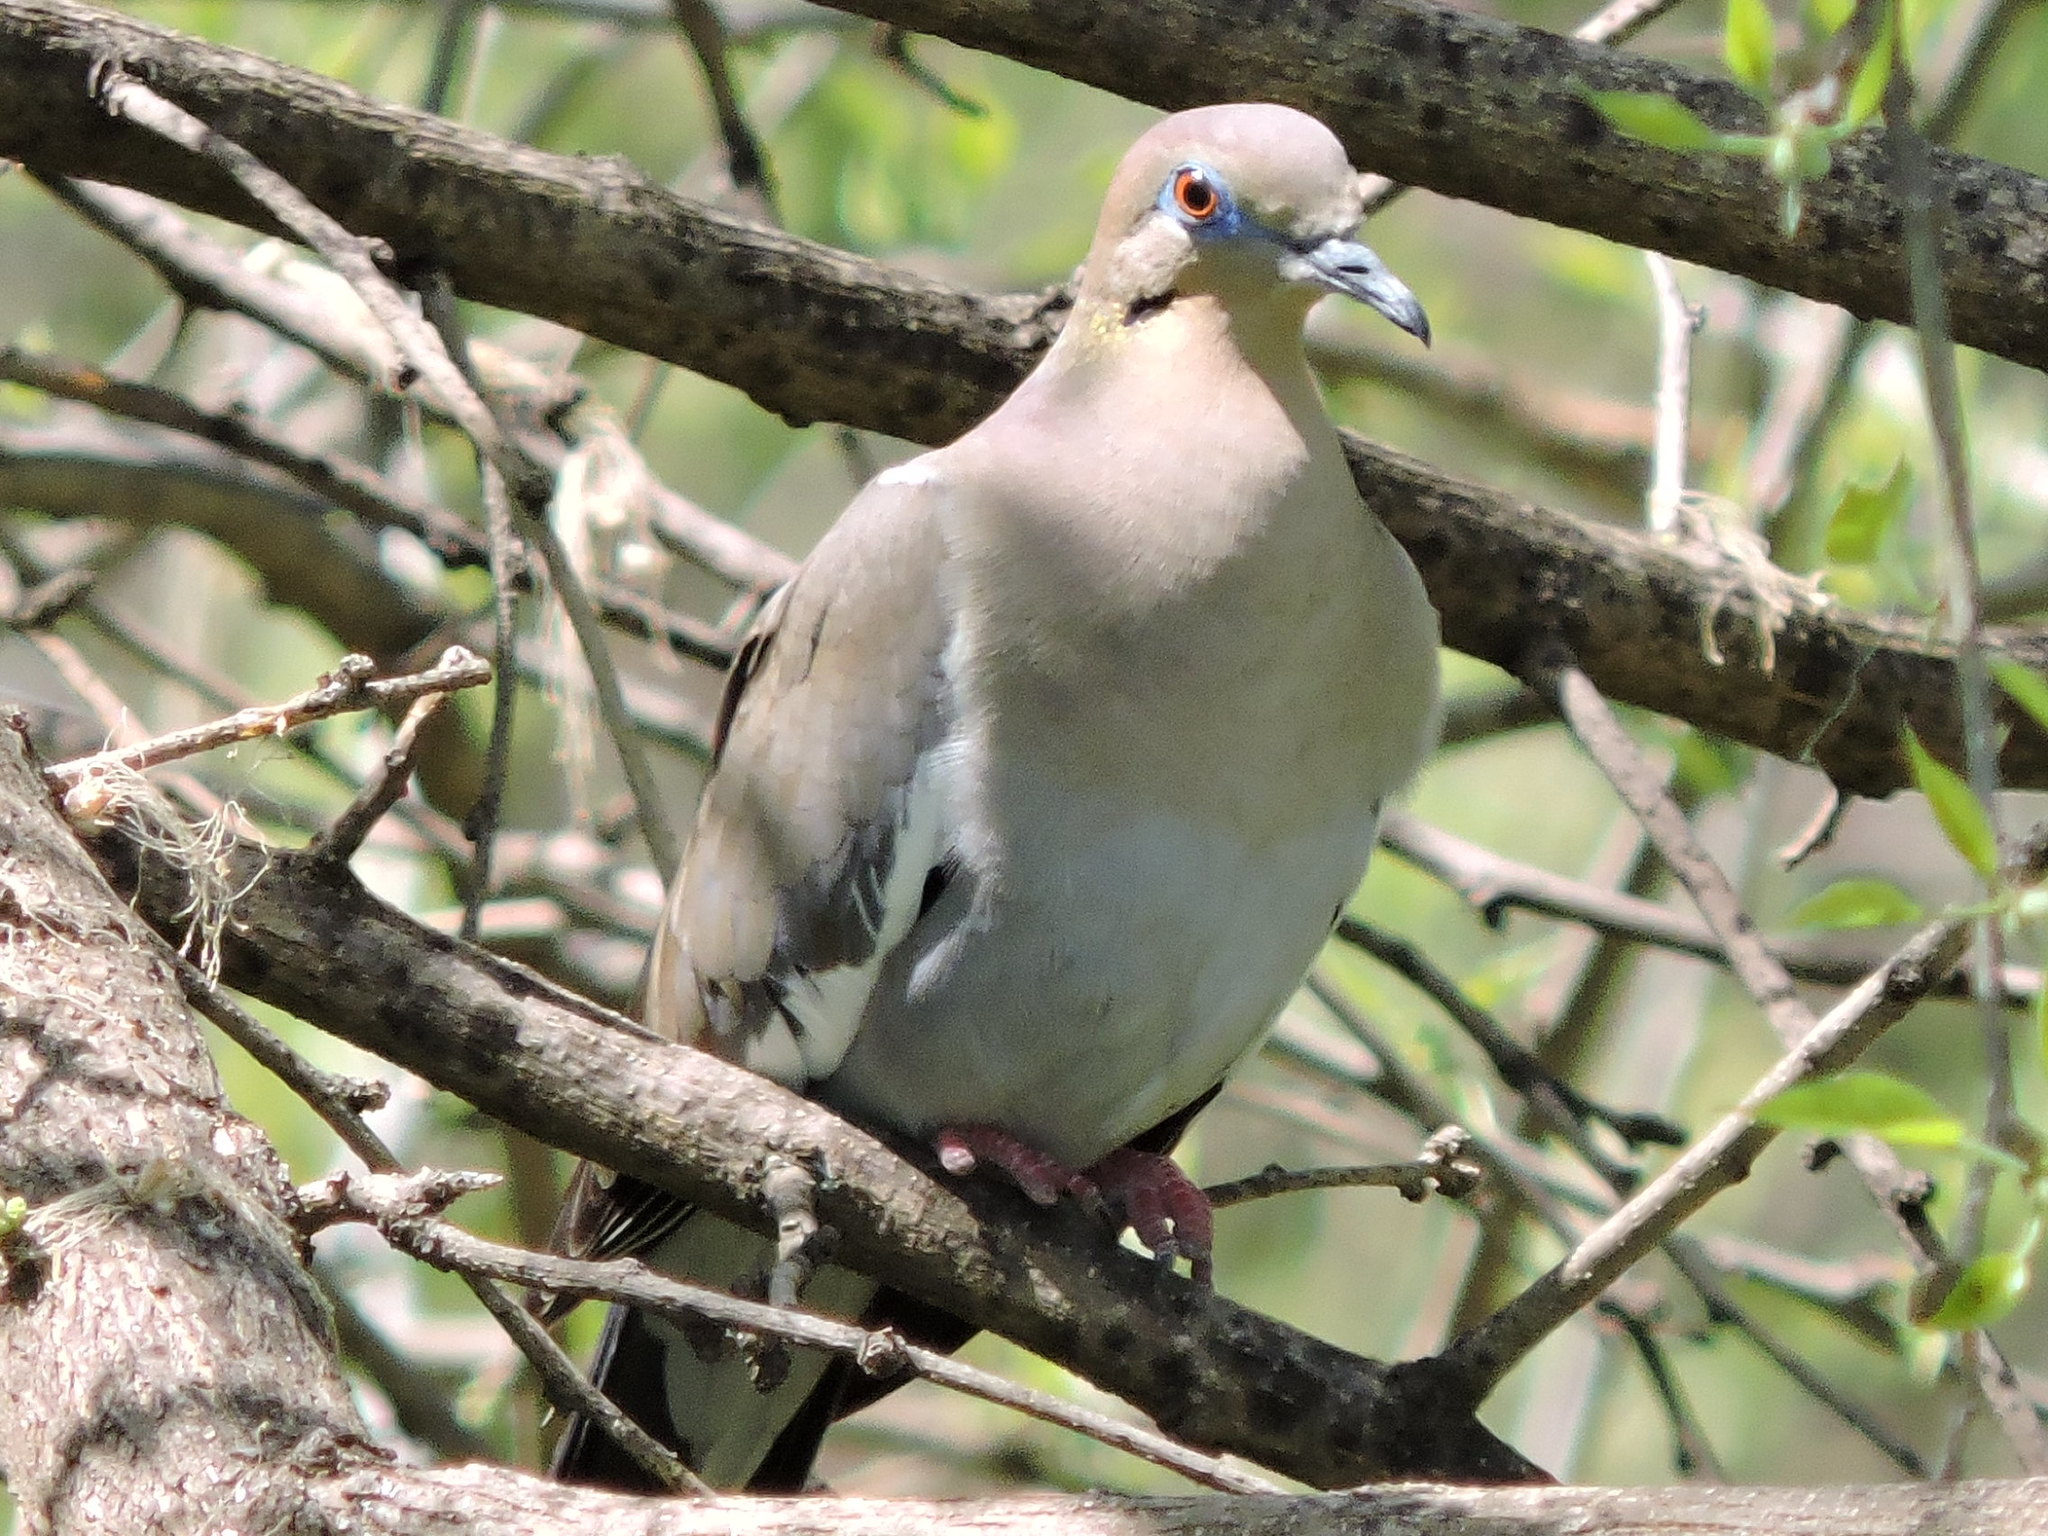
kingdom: Animalia
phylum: Chordata
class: Aves
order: Columbiformes
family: Columbidae
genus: Zenaida
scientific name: Zenaida asiatica
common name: White-winged dove
